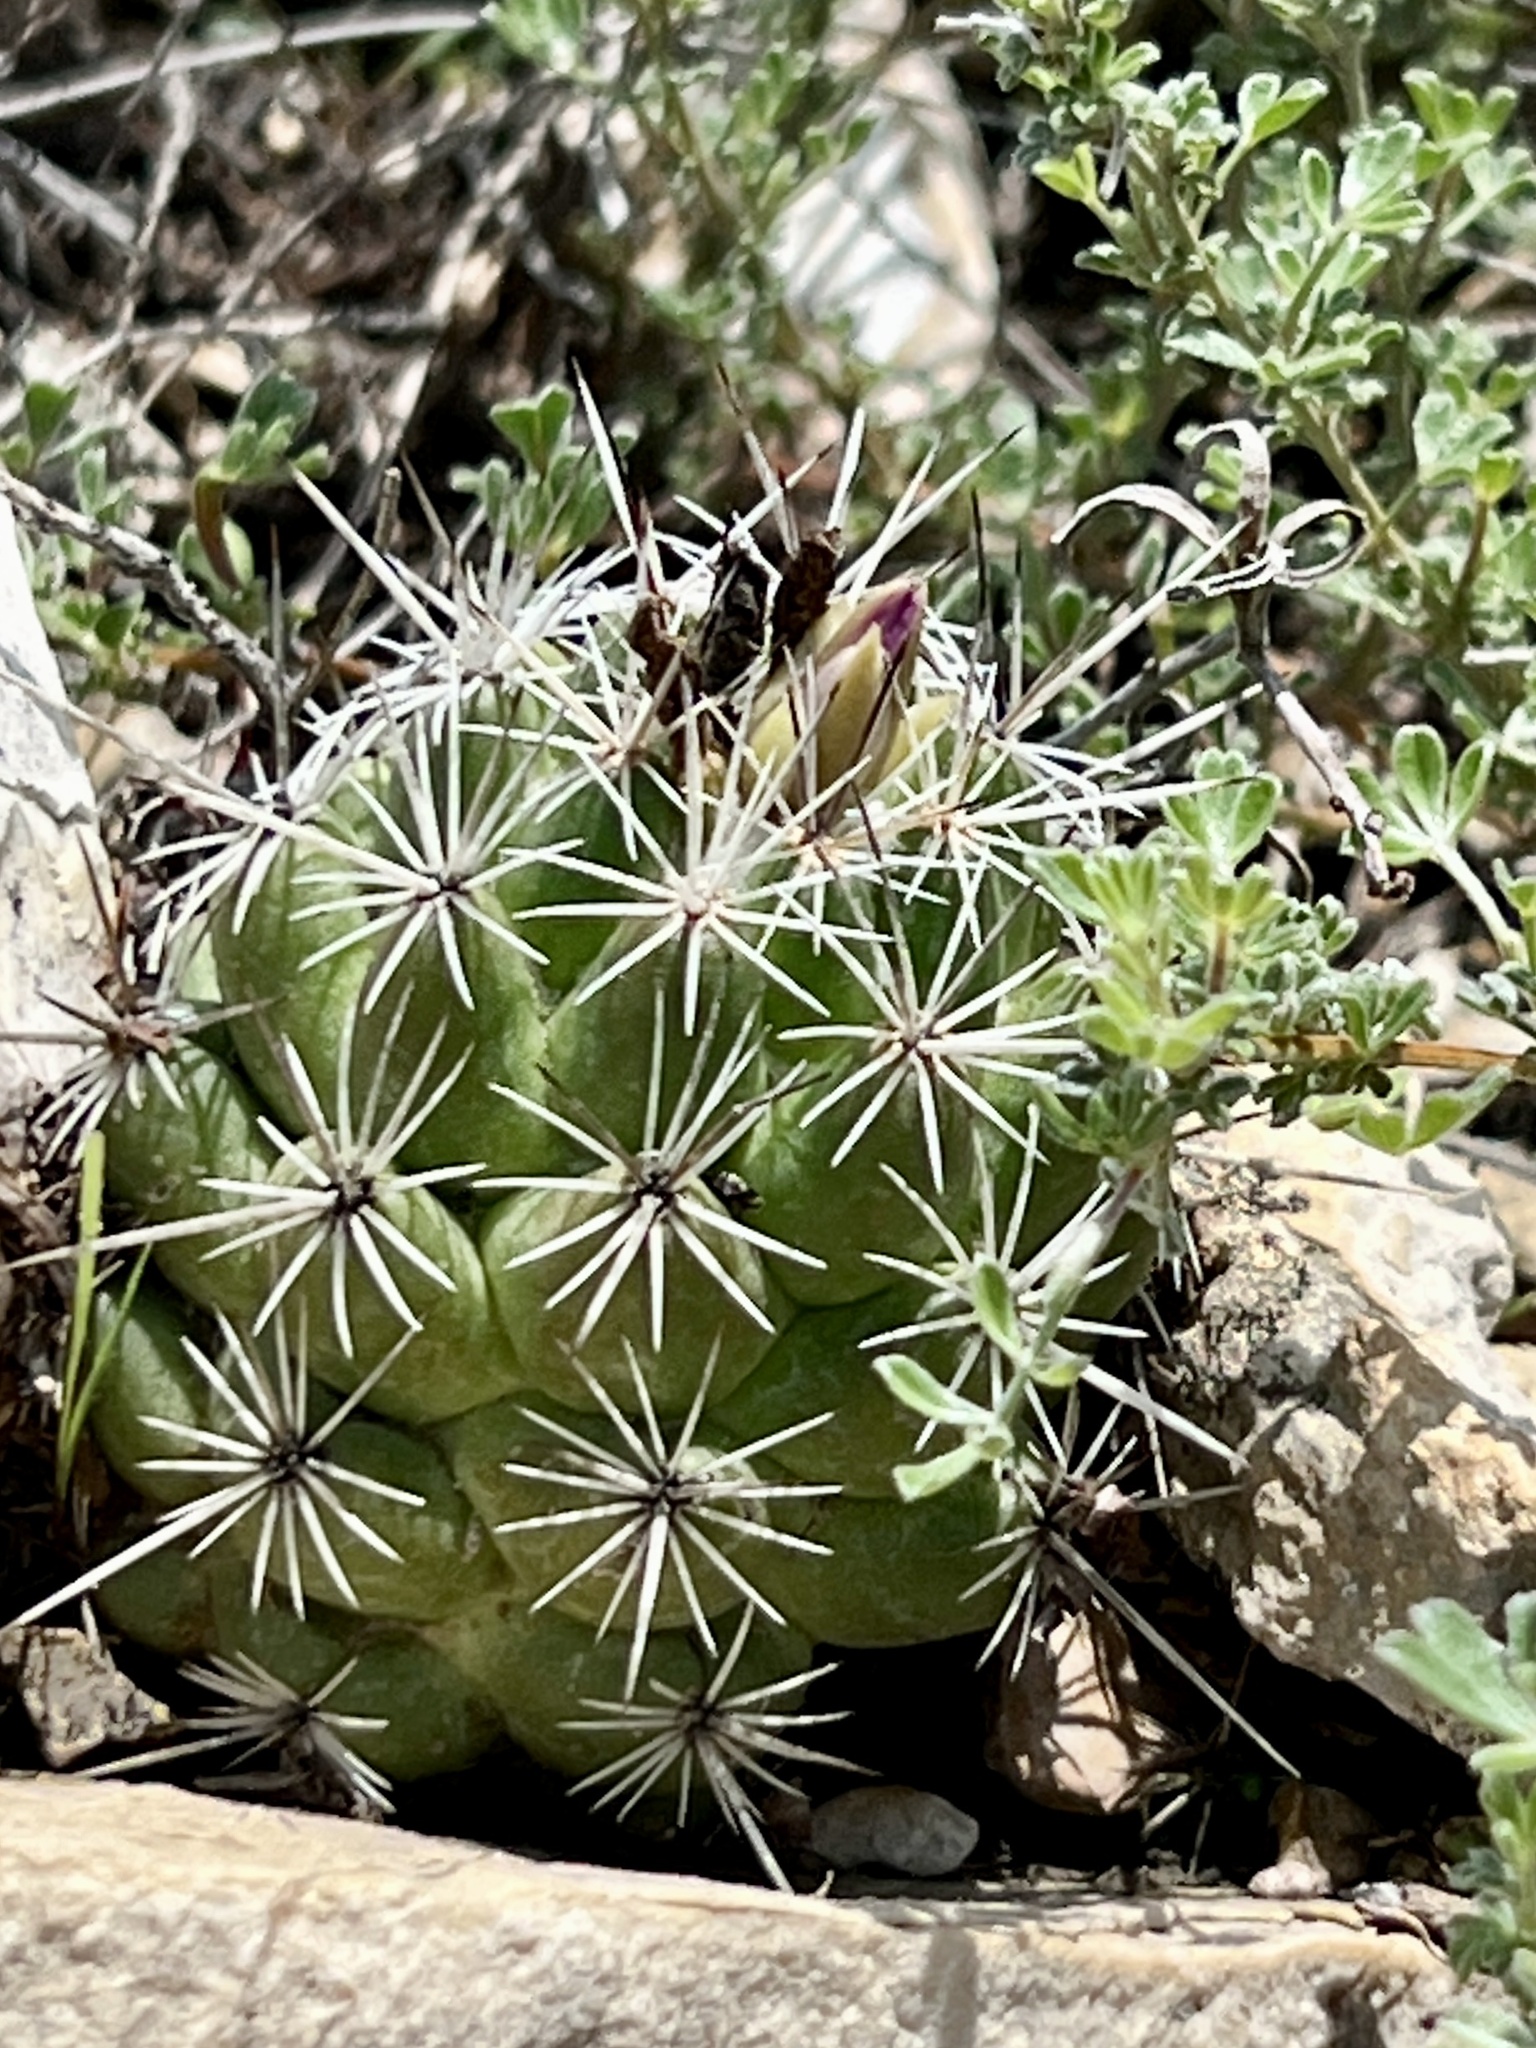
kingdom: Plantae
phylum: Tracheophyta
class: Magnoliopsida
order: Caryophyllales
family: Cactaceae
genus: Cochemiea
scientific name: Cochemiea conoidea
